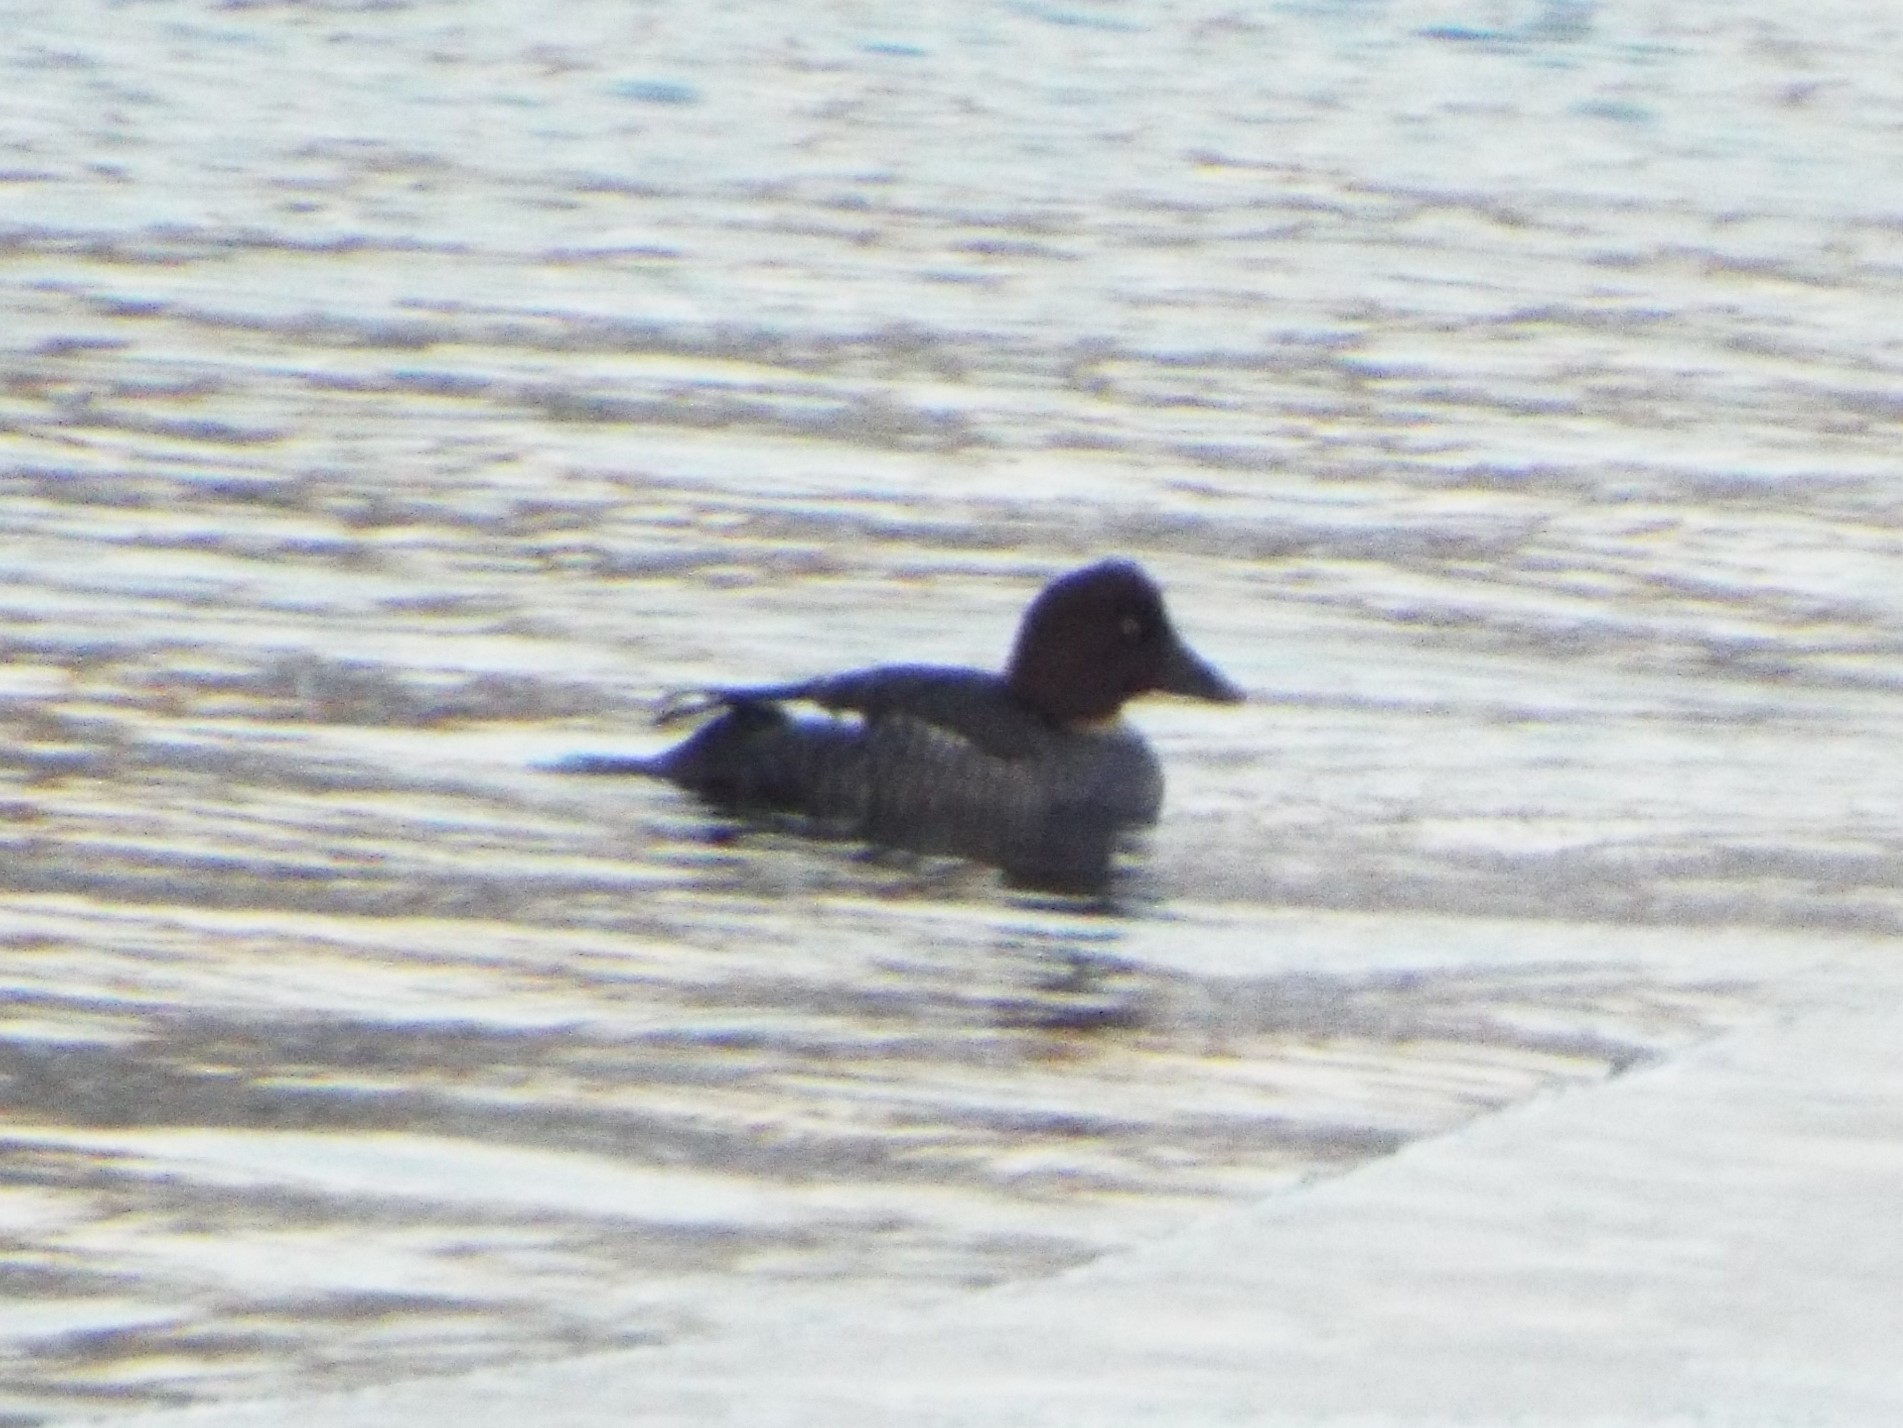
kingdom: Animalia
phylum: Chordata
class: Aves
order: Anseriformes
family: Anatidae
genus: Bucephala
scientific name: Bucephala clangula
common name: Common goldeneye
